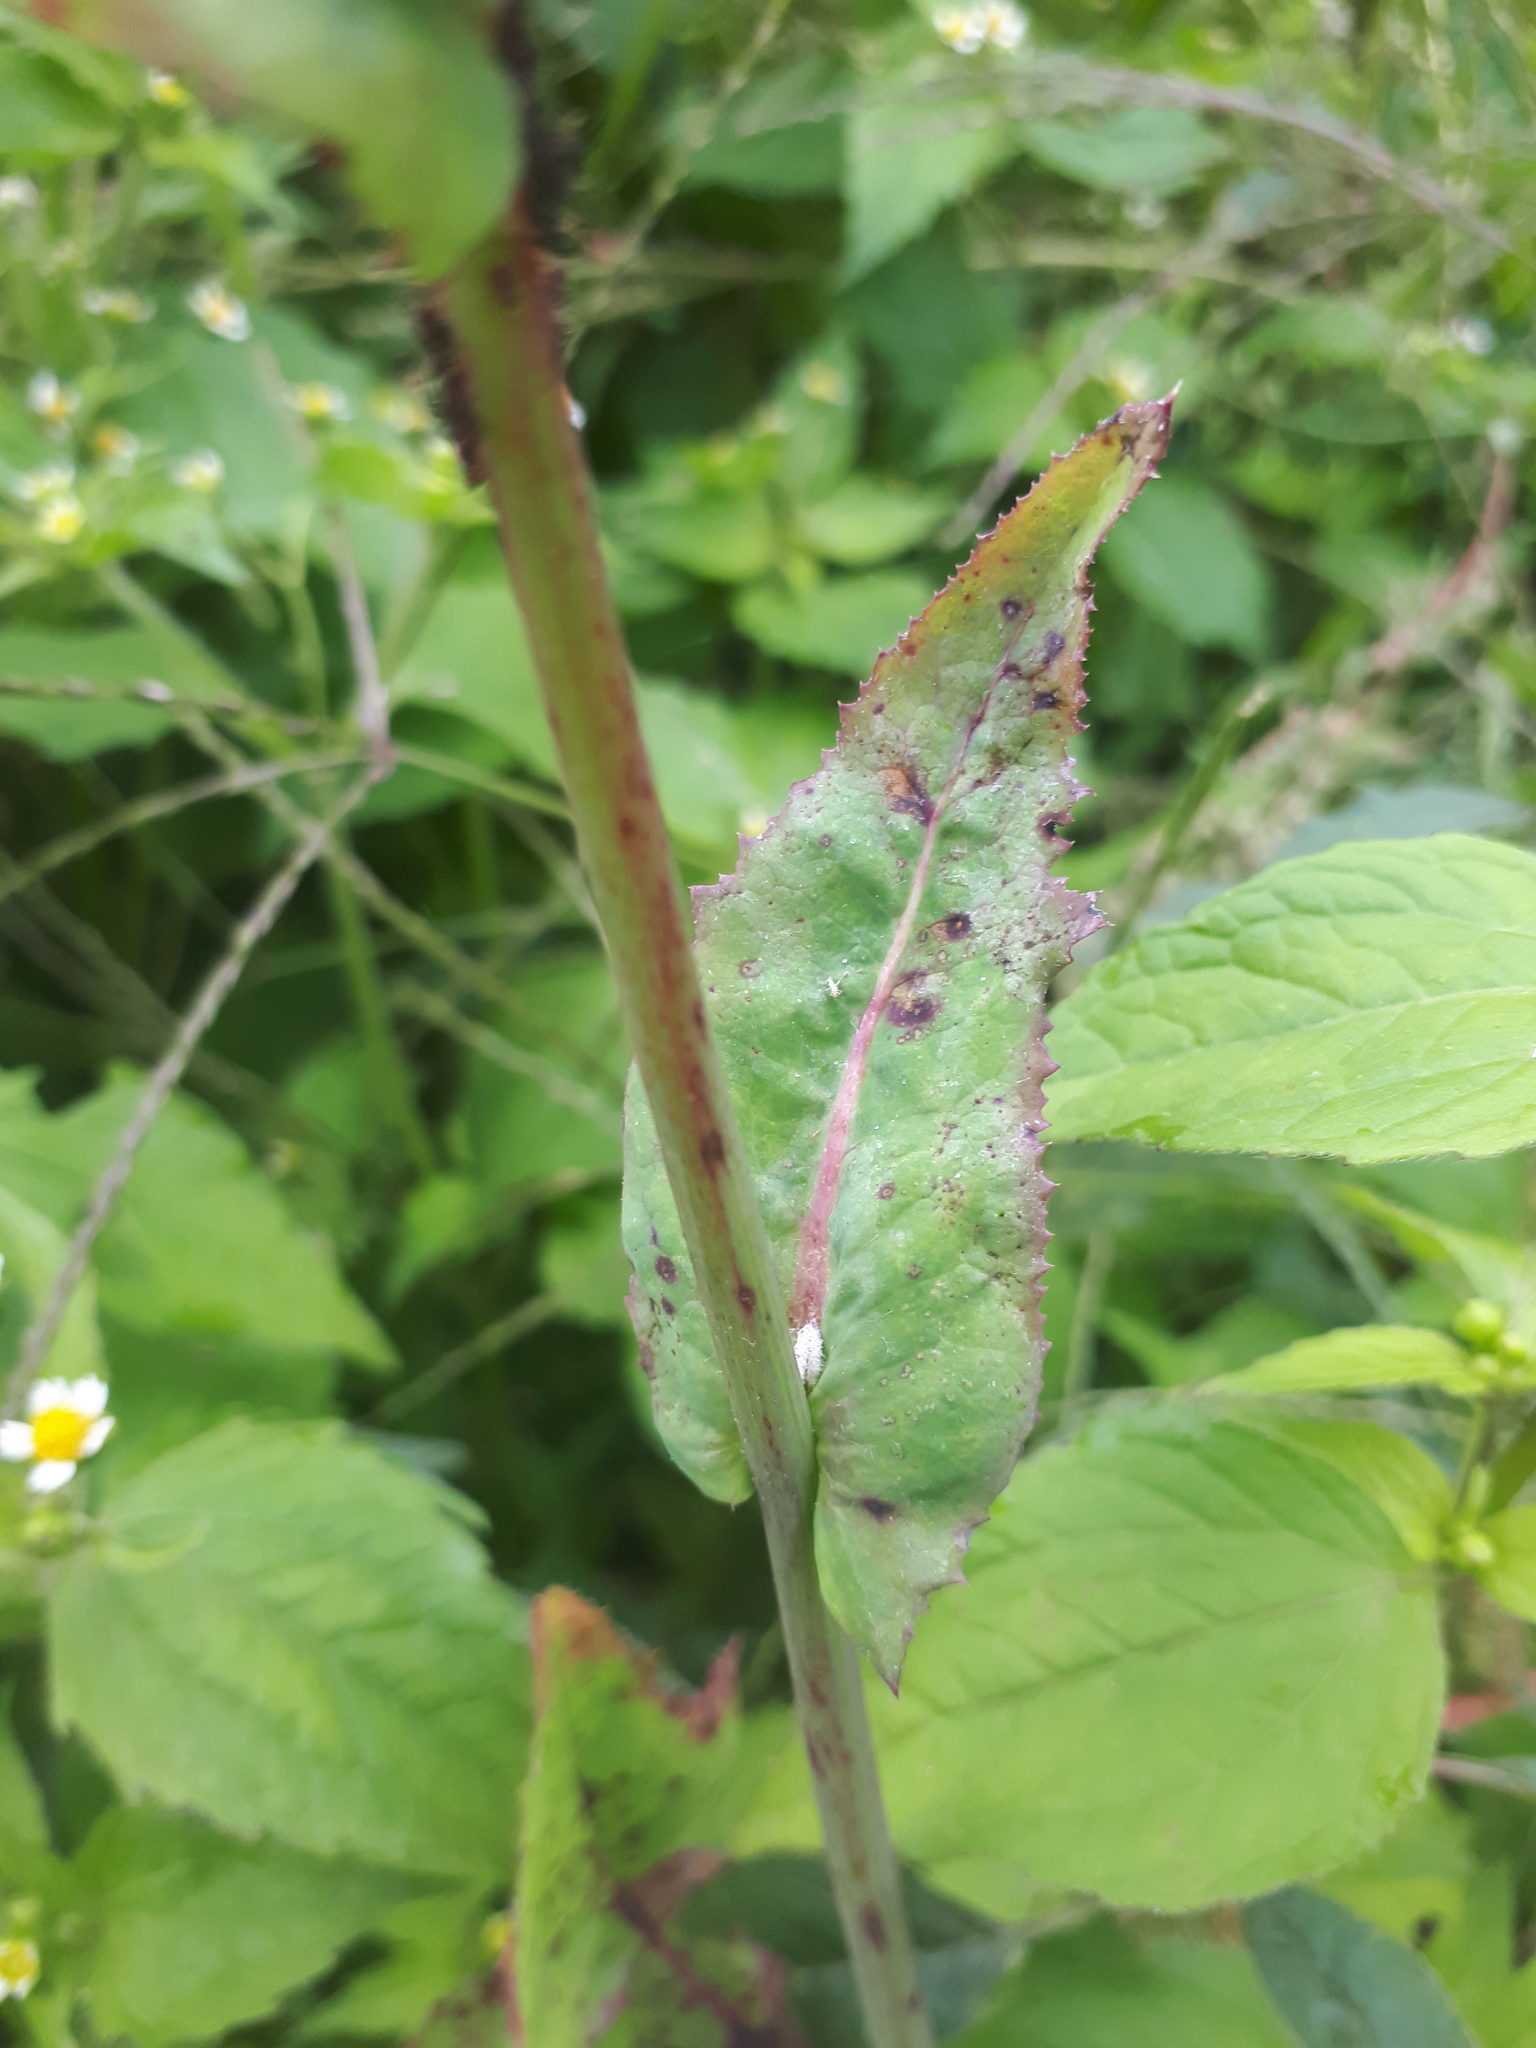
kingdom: Plantae
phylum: Tracheophyta
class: Magnoliopsida
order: Asterales
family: Asteraceae
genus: Sonchus
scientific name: Sonchus oleraceus
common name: Common sowthistle
